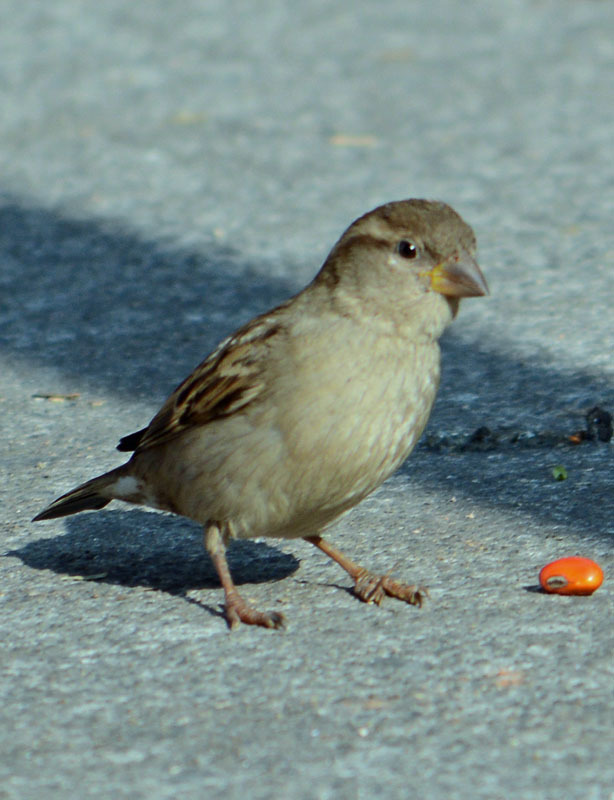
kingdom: Animalia
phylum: Chordata
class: Aves
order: Passeriformes
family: Passeridae
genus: Passer
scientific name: Passer domesticus
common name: House sparrow
